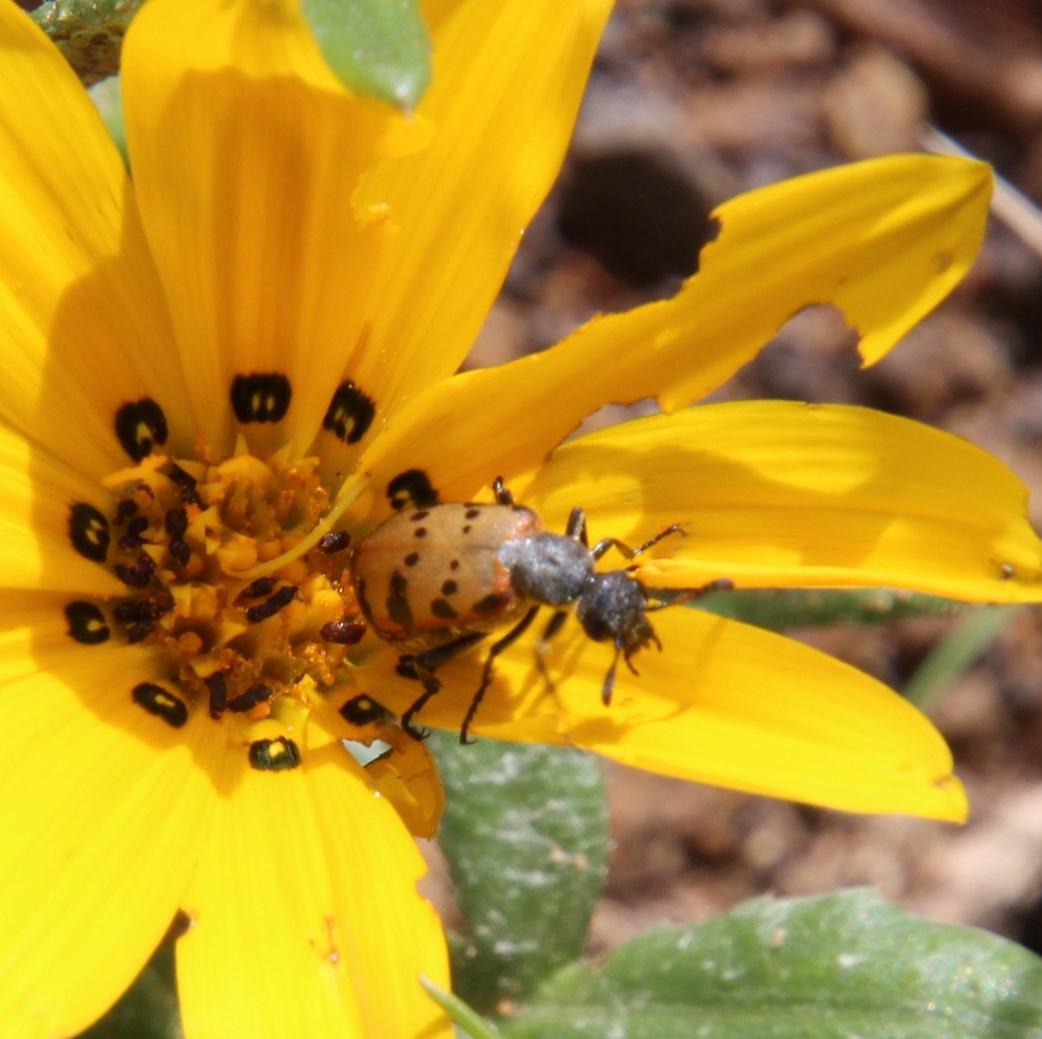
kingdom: Animalia
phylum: Arthropoda
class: Insecta
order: Coleoptera
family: Meloidae
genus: Hycleus
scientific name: Hycleus transvaalicus
